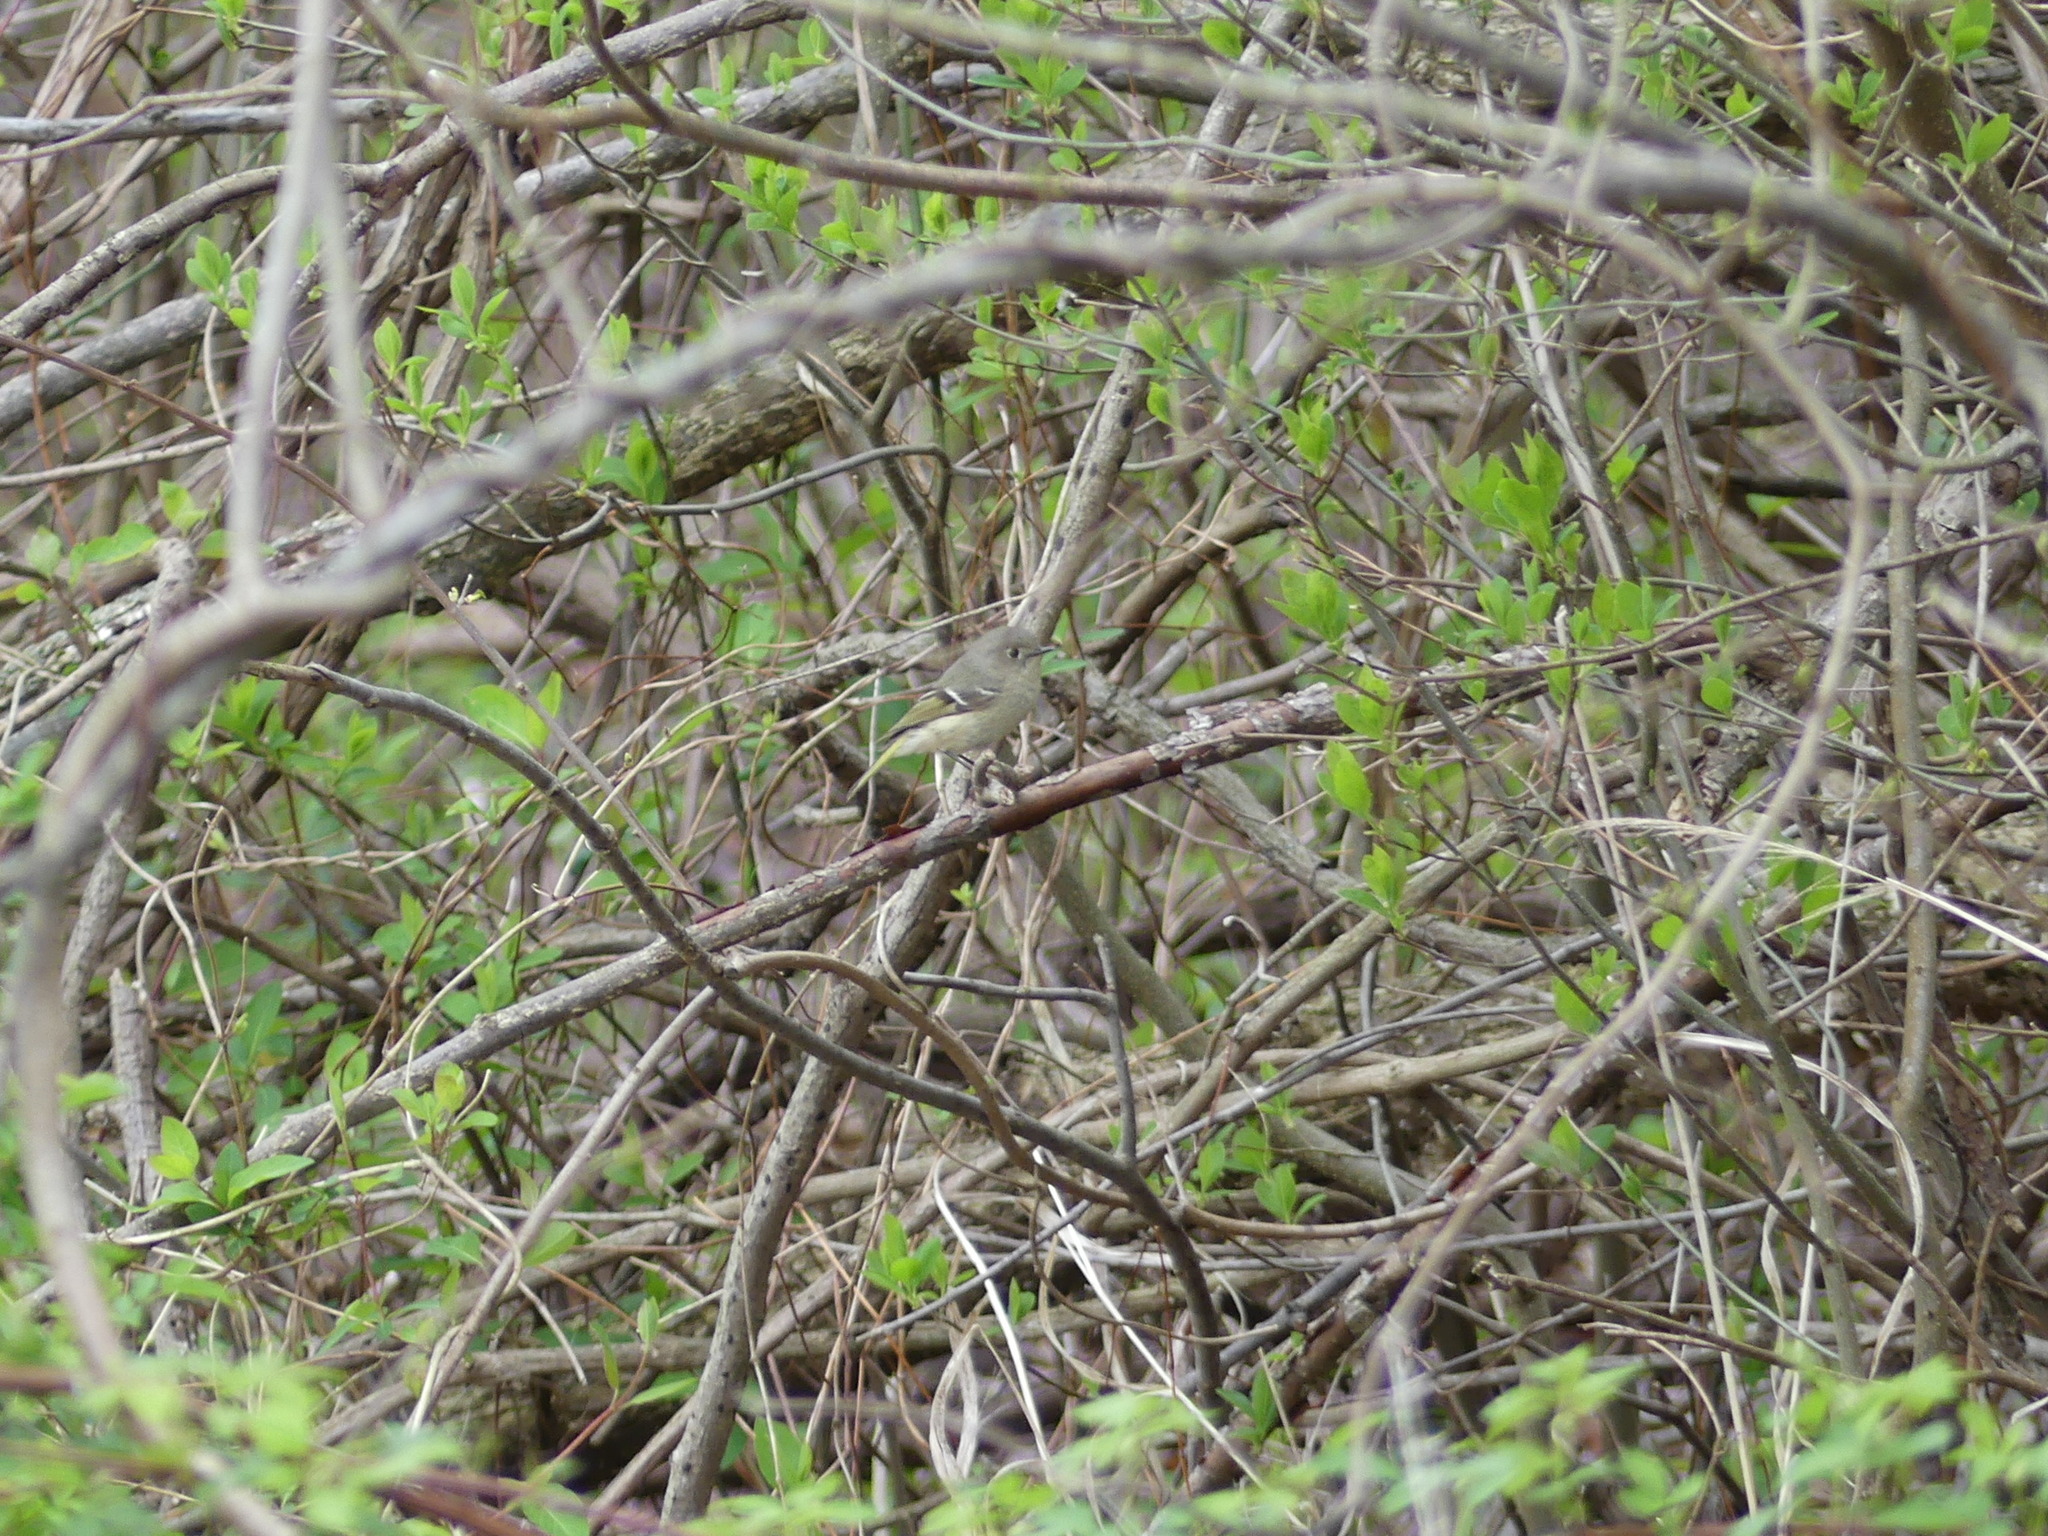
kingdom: Animalia
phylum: Chordata
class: Aves
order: Passeriformes
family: Regulidae
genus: Regulus
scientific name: Regulus calendula
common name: Ruby-crowned kinglet
